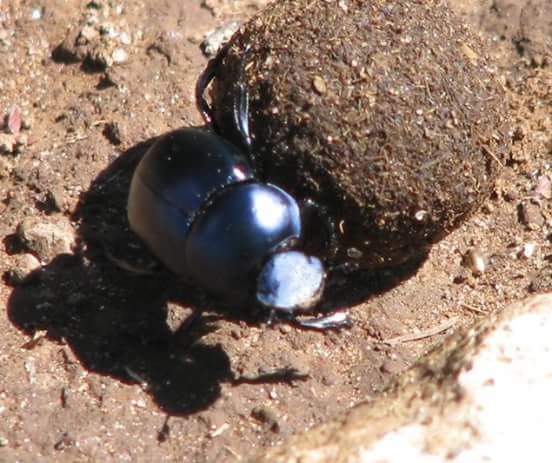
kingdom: Animalia
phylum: Arthropoda
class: Insecta
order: Coleoptera
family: Scarabaeidae
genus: Canthon
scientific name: Canthon humectus
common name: Tumblebug
